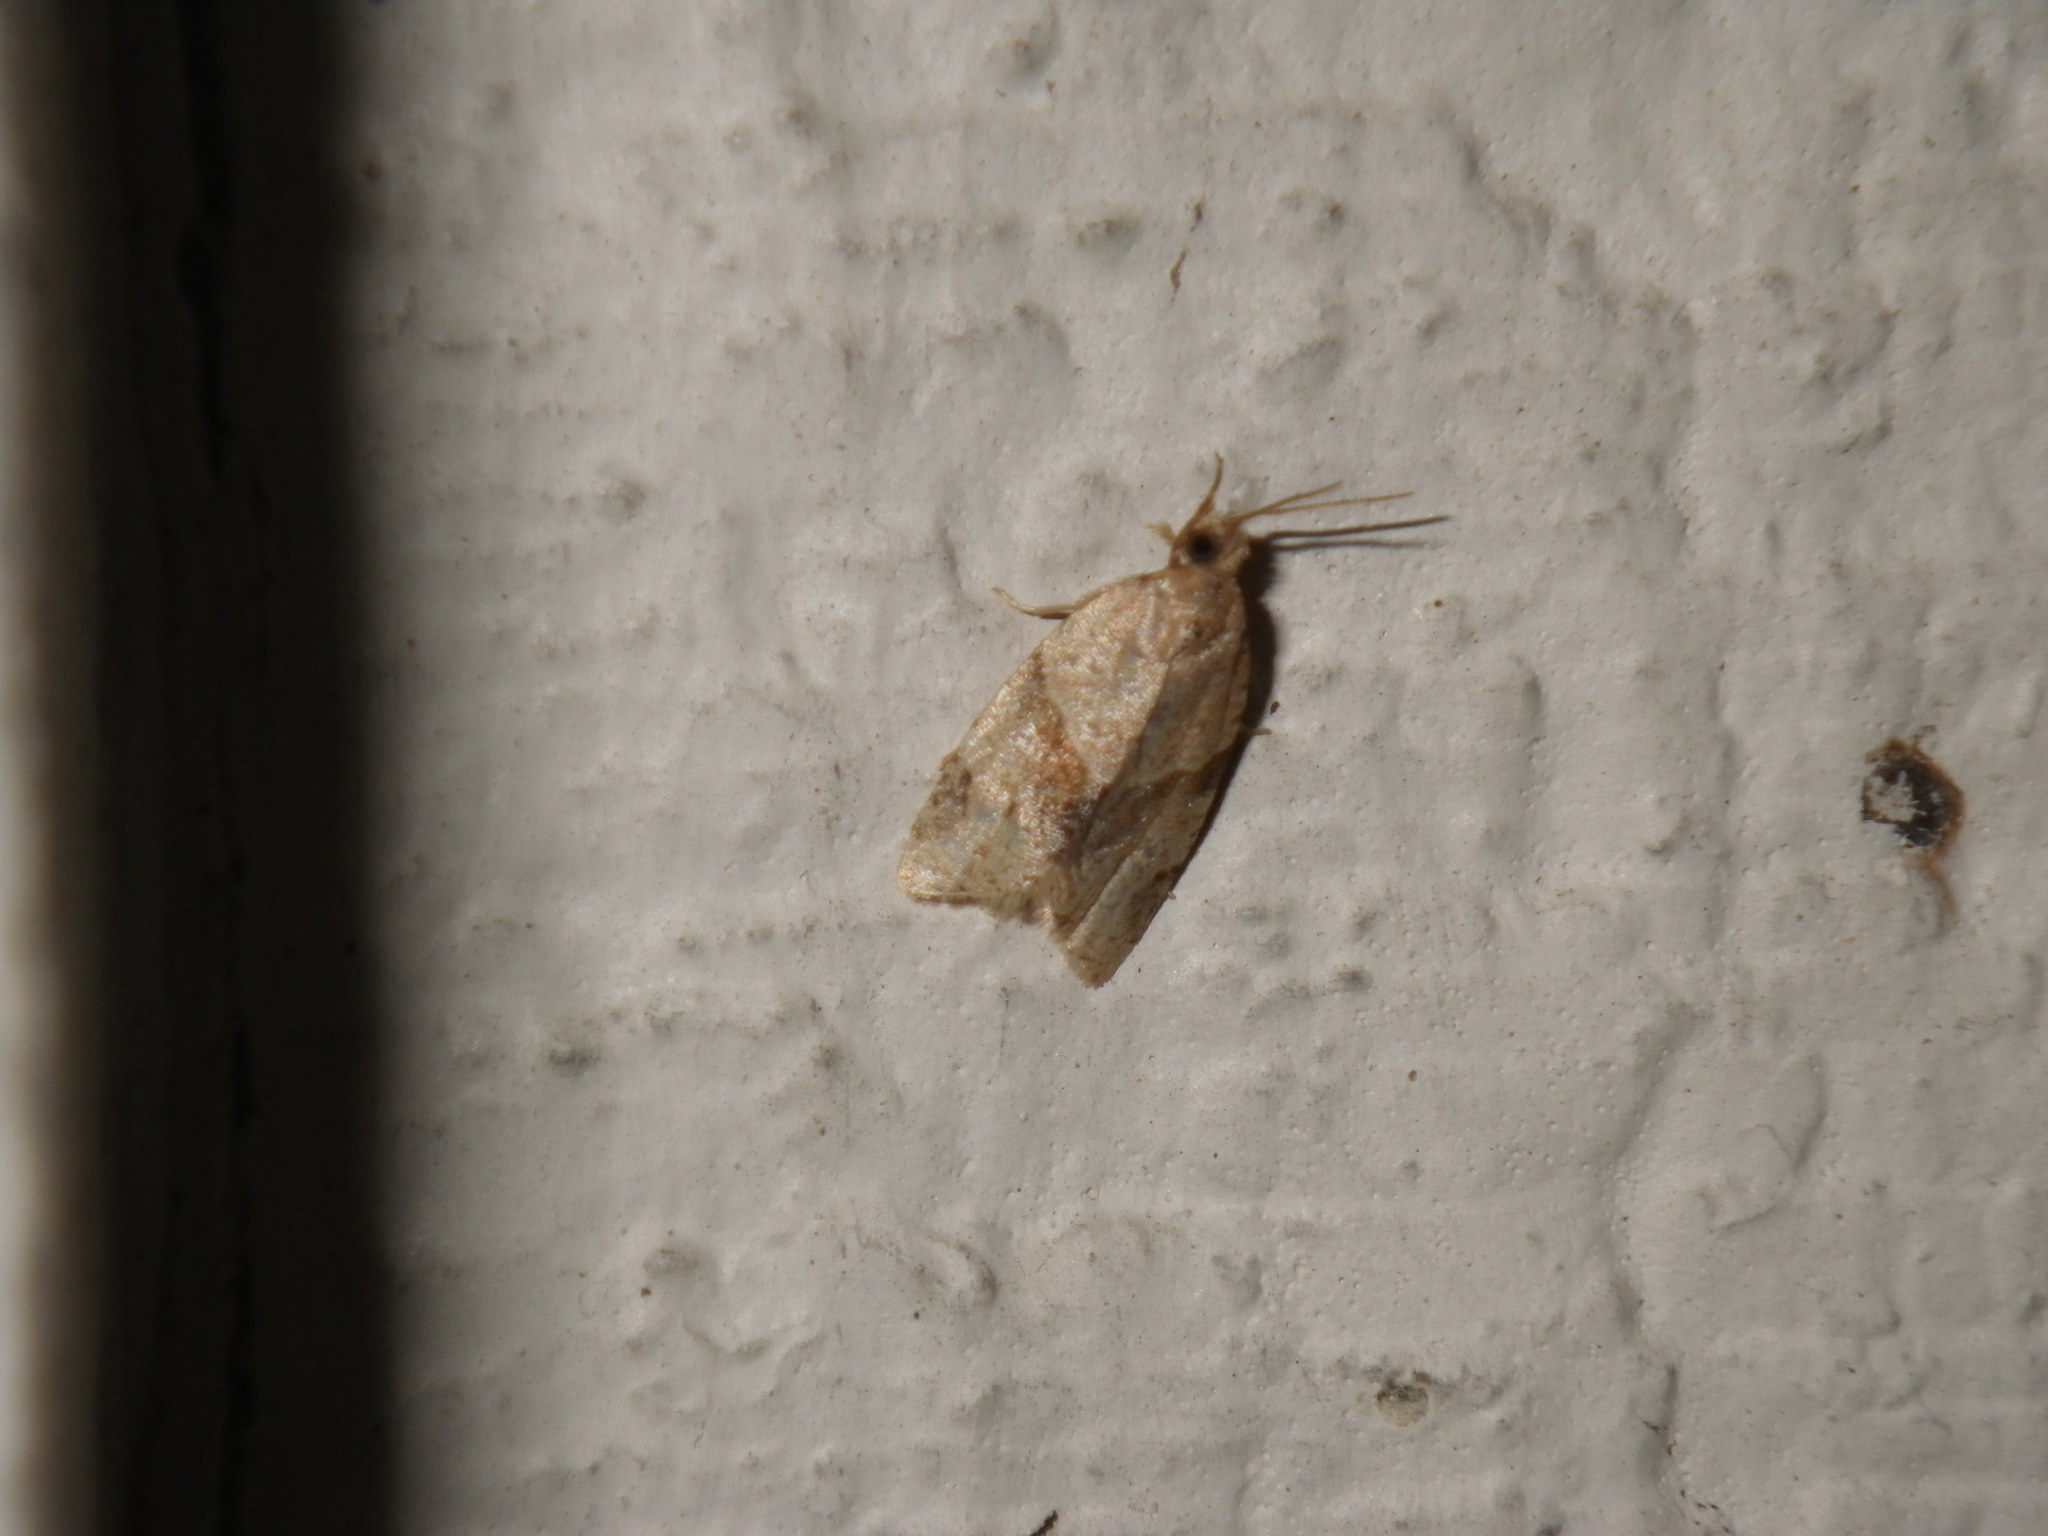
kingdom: Animalia
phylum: Arthropoda
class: Insecta
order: Lepidoptera
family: Tortricidae
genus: Clepsis
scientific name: Clepsis peritana
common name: Garden tortrix
